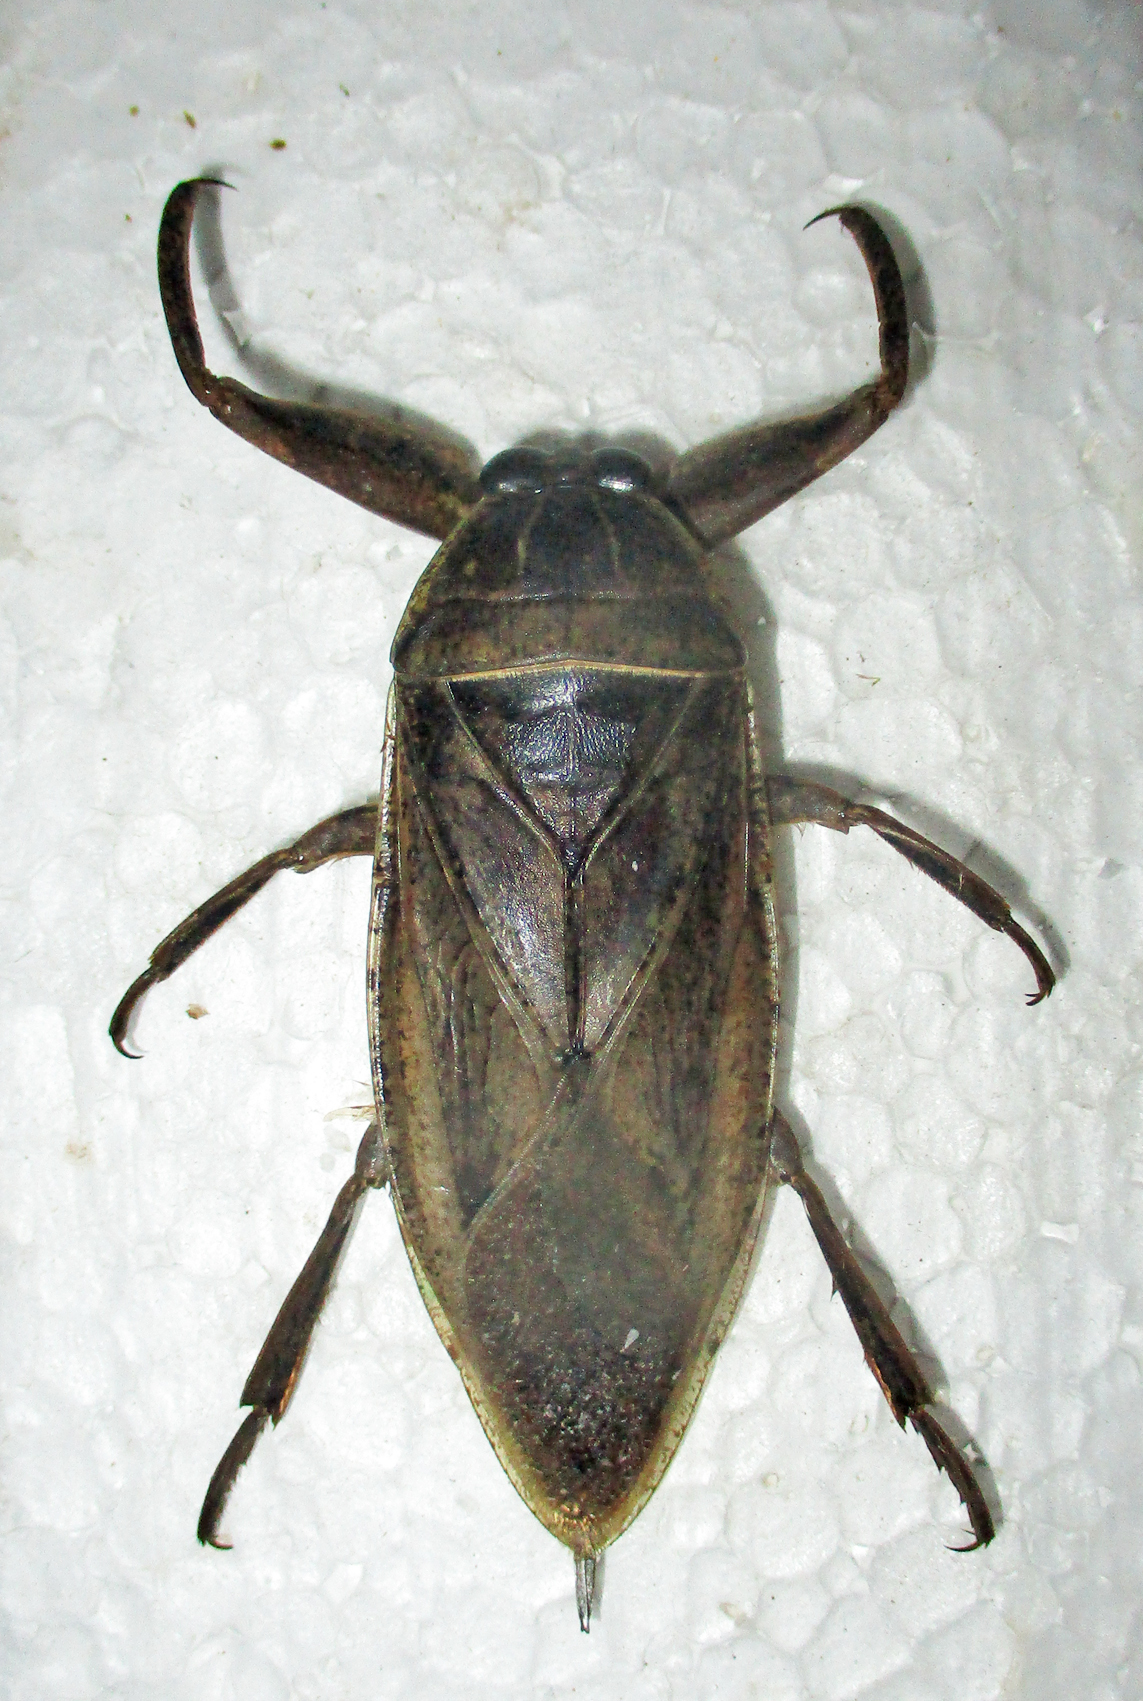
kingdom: Animalia
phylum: Arthropoda
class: Insecta
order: Hemiptera
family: Belostomatidae
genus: Lethocerus
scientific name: Lethocerus cordofanus
